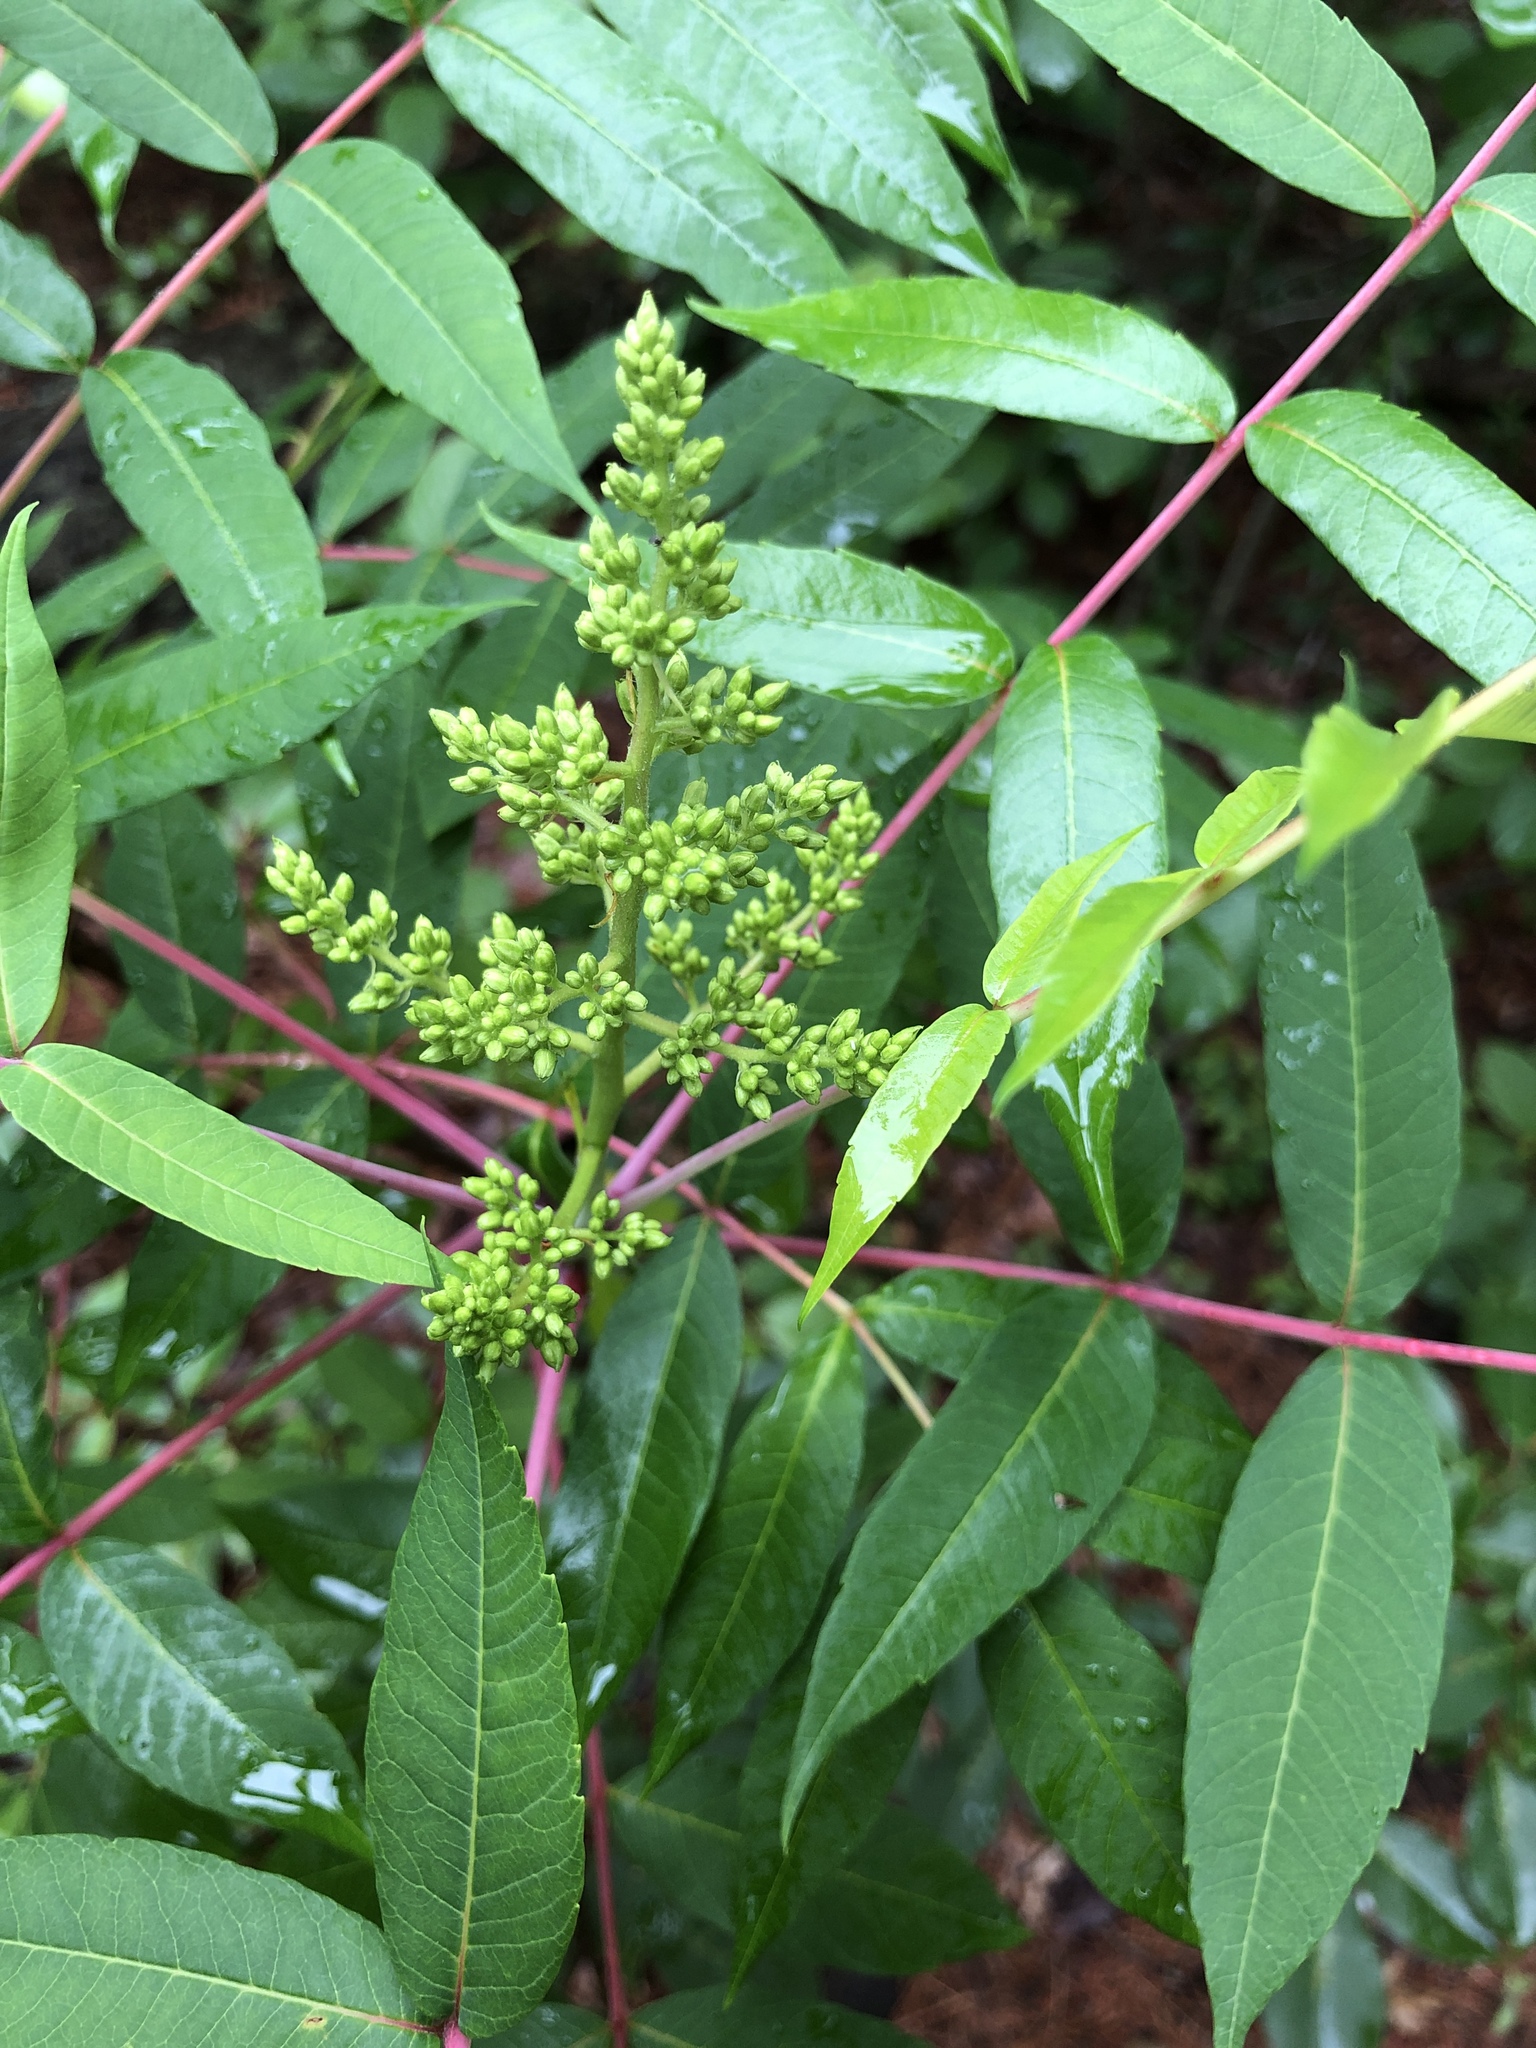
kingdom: Plantae
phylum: Tracheophyta
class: Magnoliopsida
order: Sapindales
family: Anacardiaceae
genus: Rhus
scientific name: Rhus glabra
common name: Scarlet sumac
